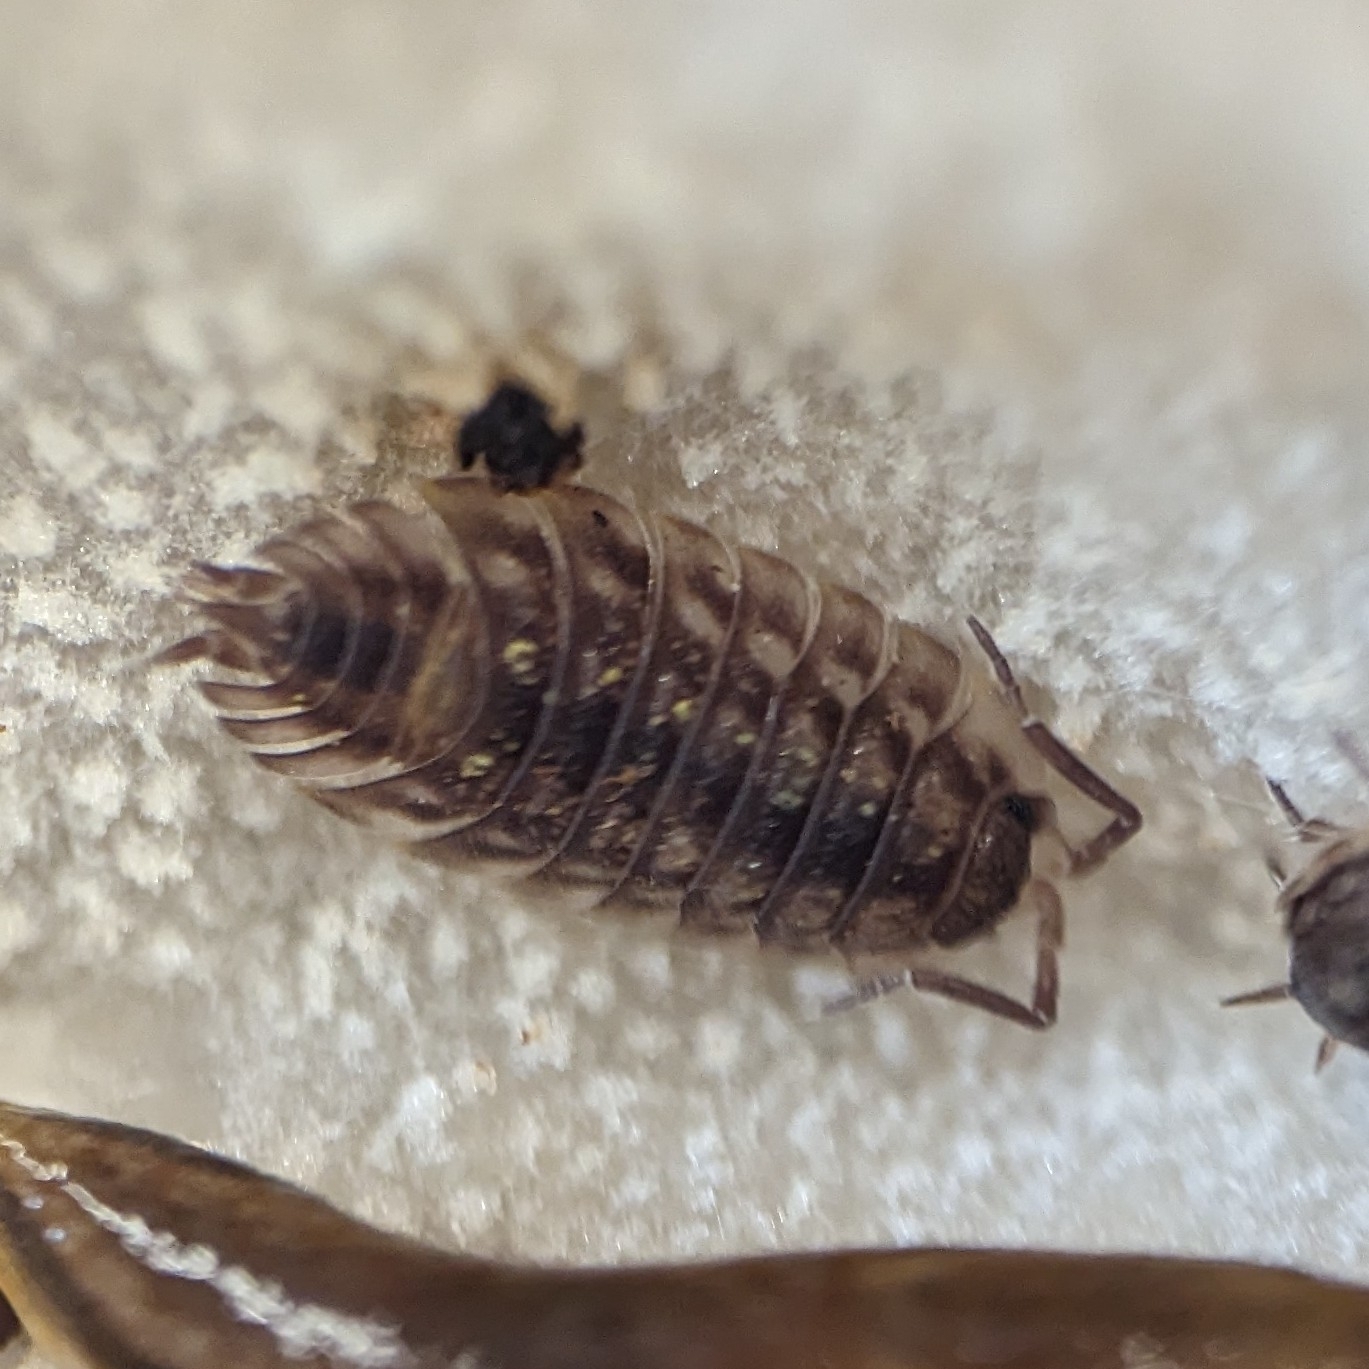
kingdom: Animalia
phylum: Arthropoda
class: Malacostraca
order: Isopoda
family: Oniscidae
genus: Oniscus
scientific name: Oniscus asellus
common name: Common shiny woodlouse
